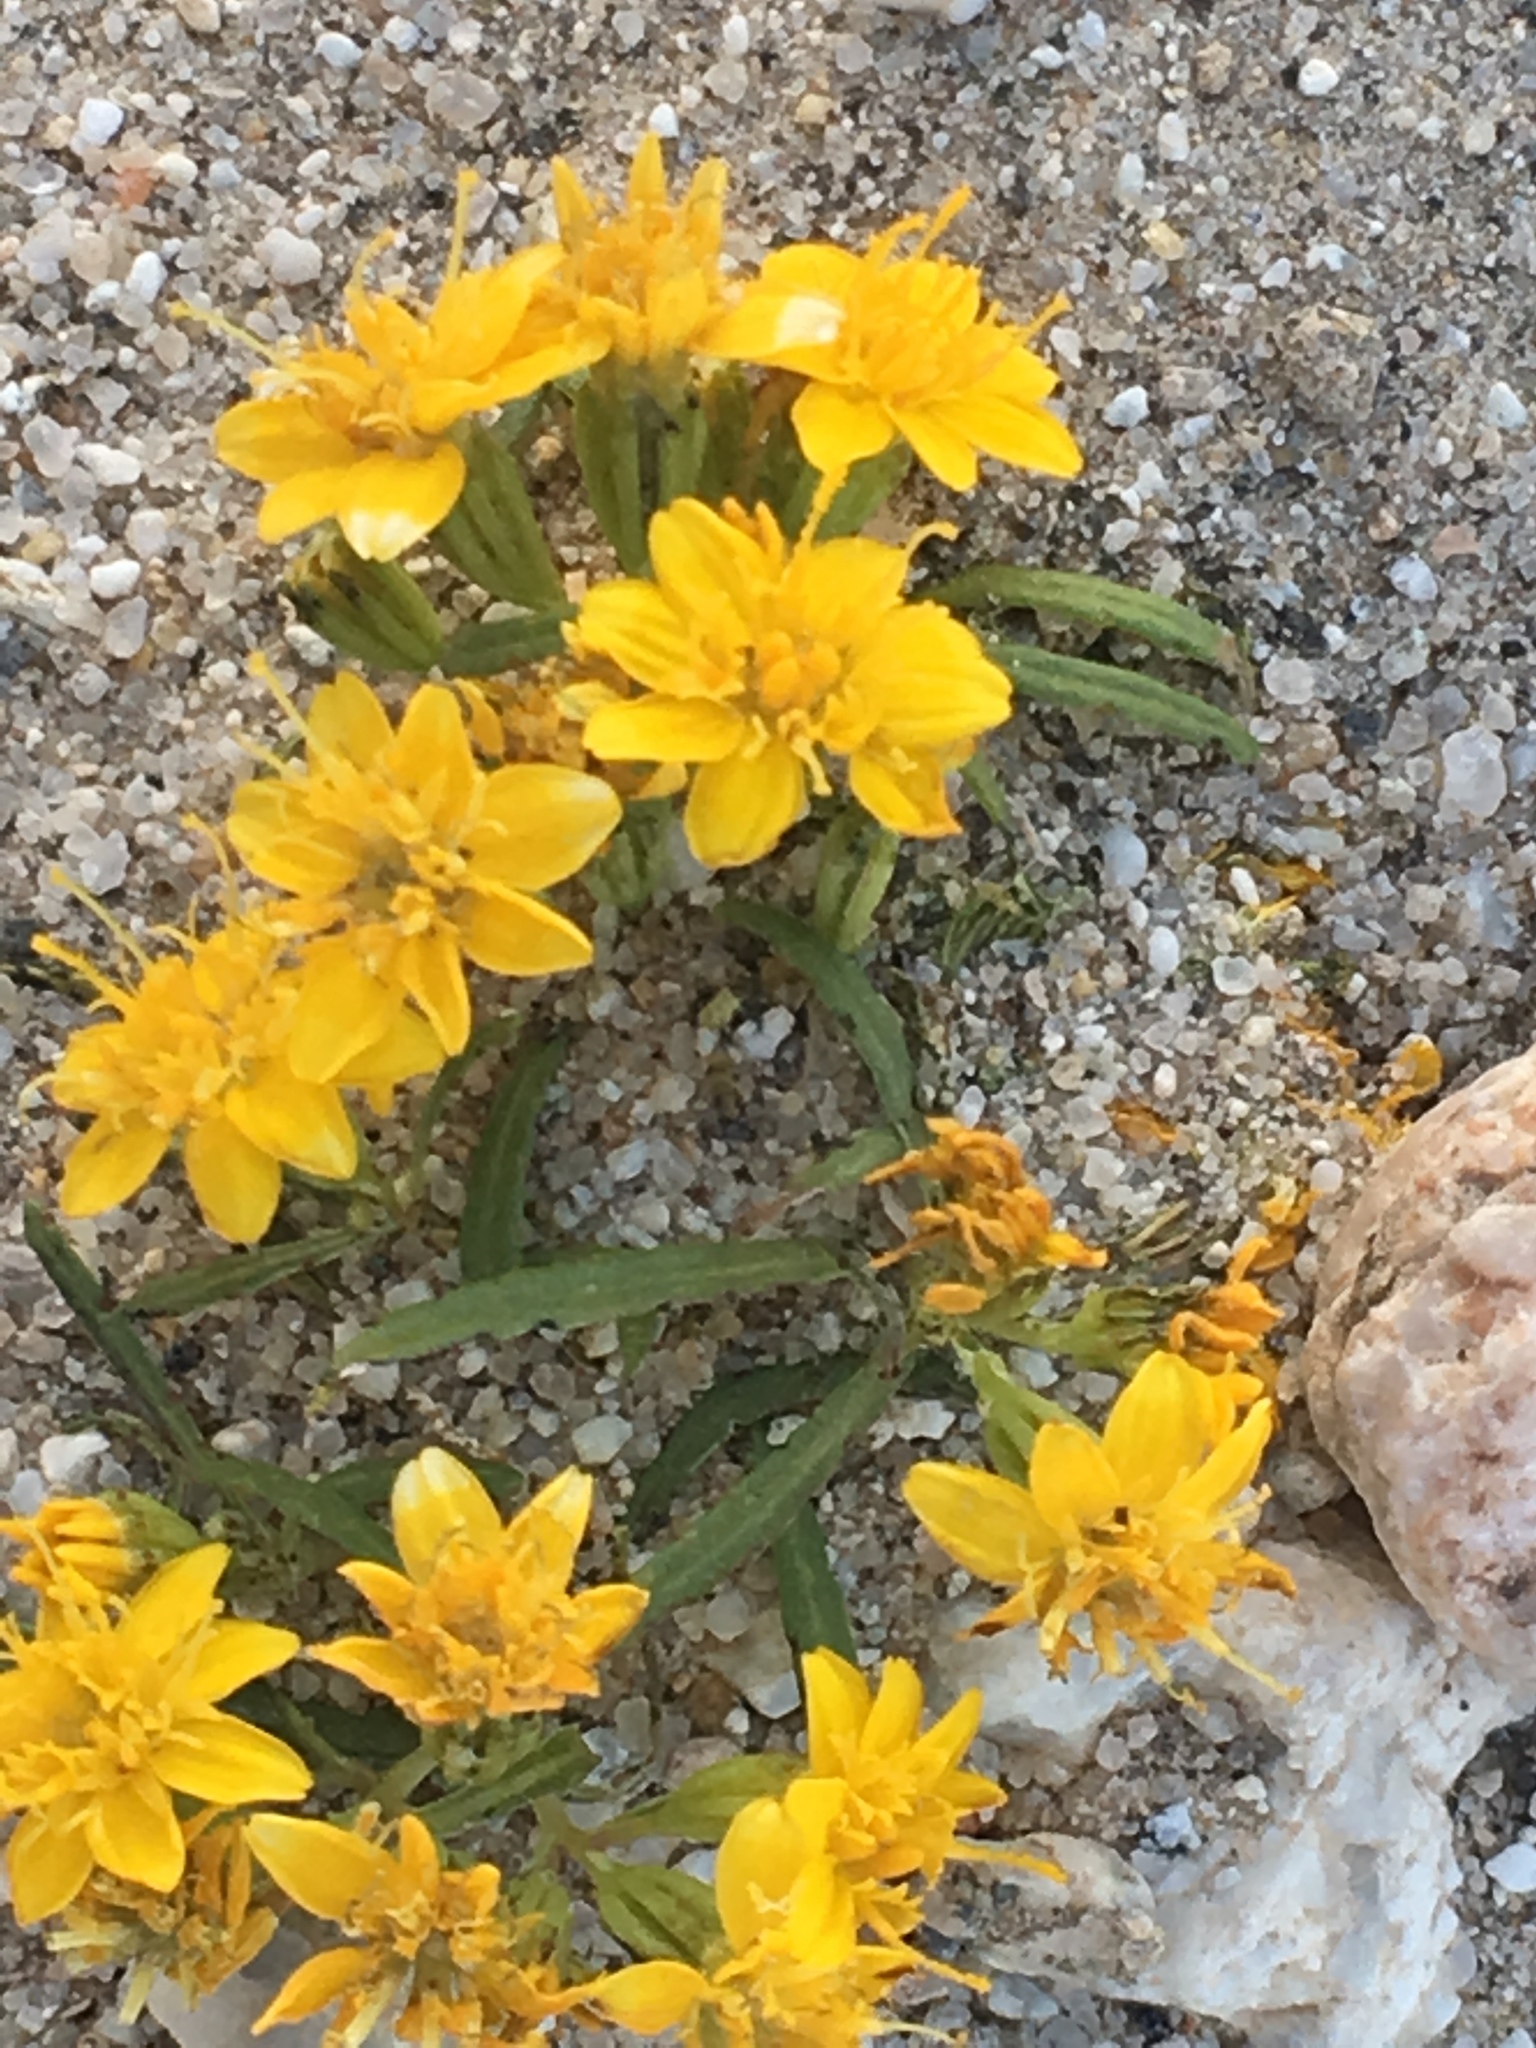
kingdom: Plantae
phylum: Tracheophyta
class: Magnoliopsida
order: Asterales
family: Asteraceae
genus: Pectis
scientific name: Pectis papposa
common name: Many-bristle chinchweed
